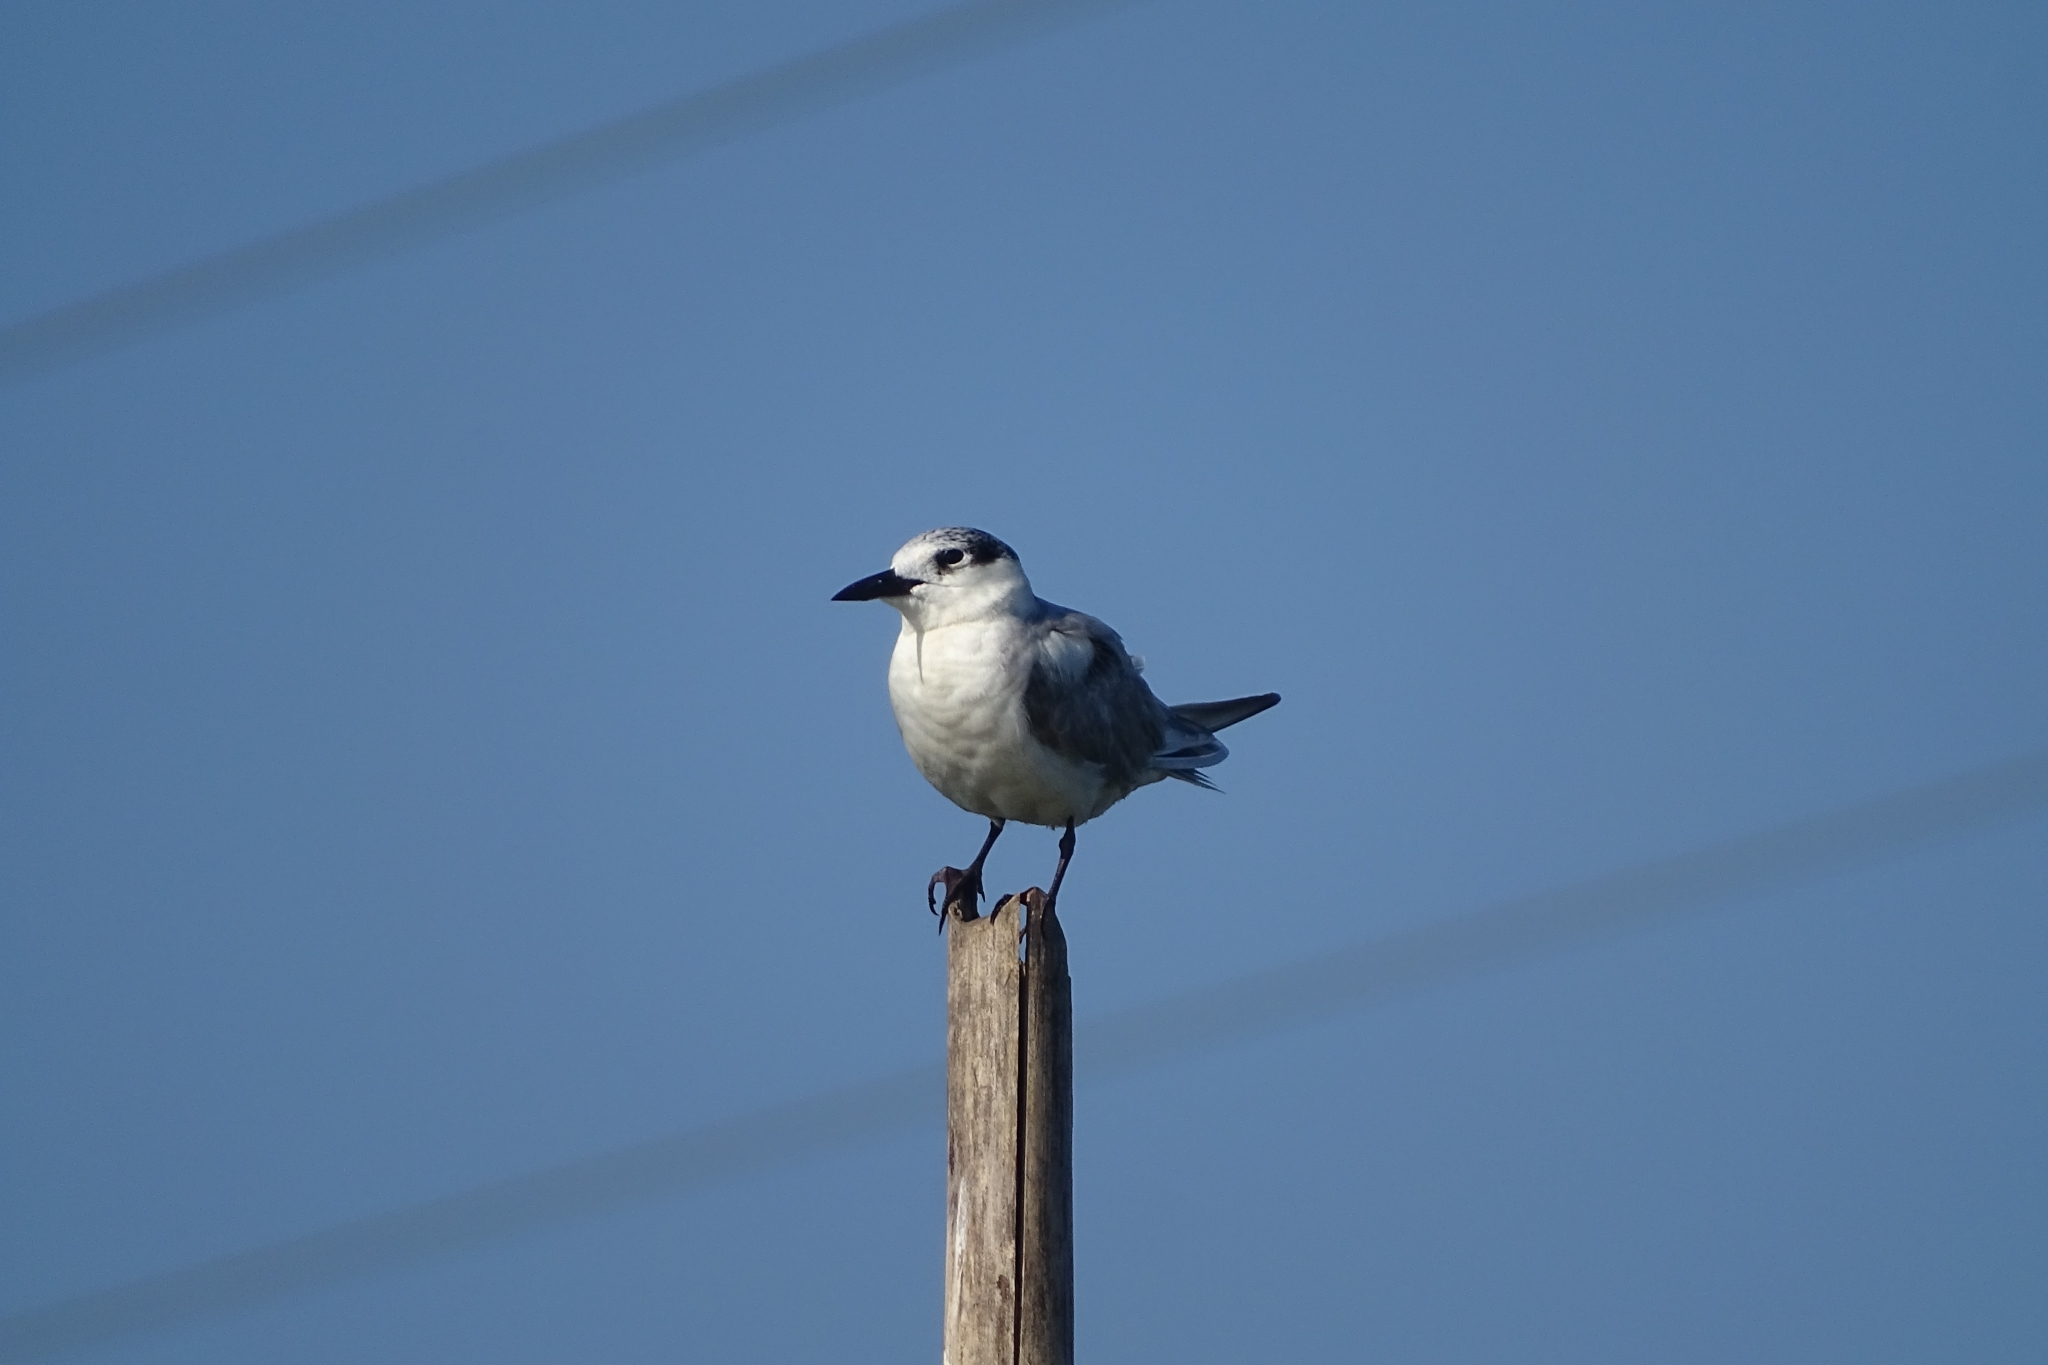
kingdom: Animalia
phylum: Chordata
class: Aves
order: Charadriiformes
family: Laridae
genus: Chlidonias
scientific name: Chlidonias hybrida
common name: Whiskered tern
